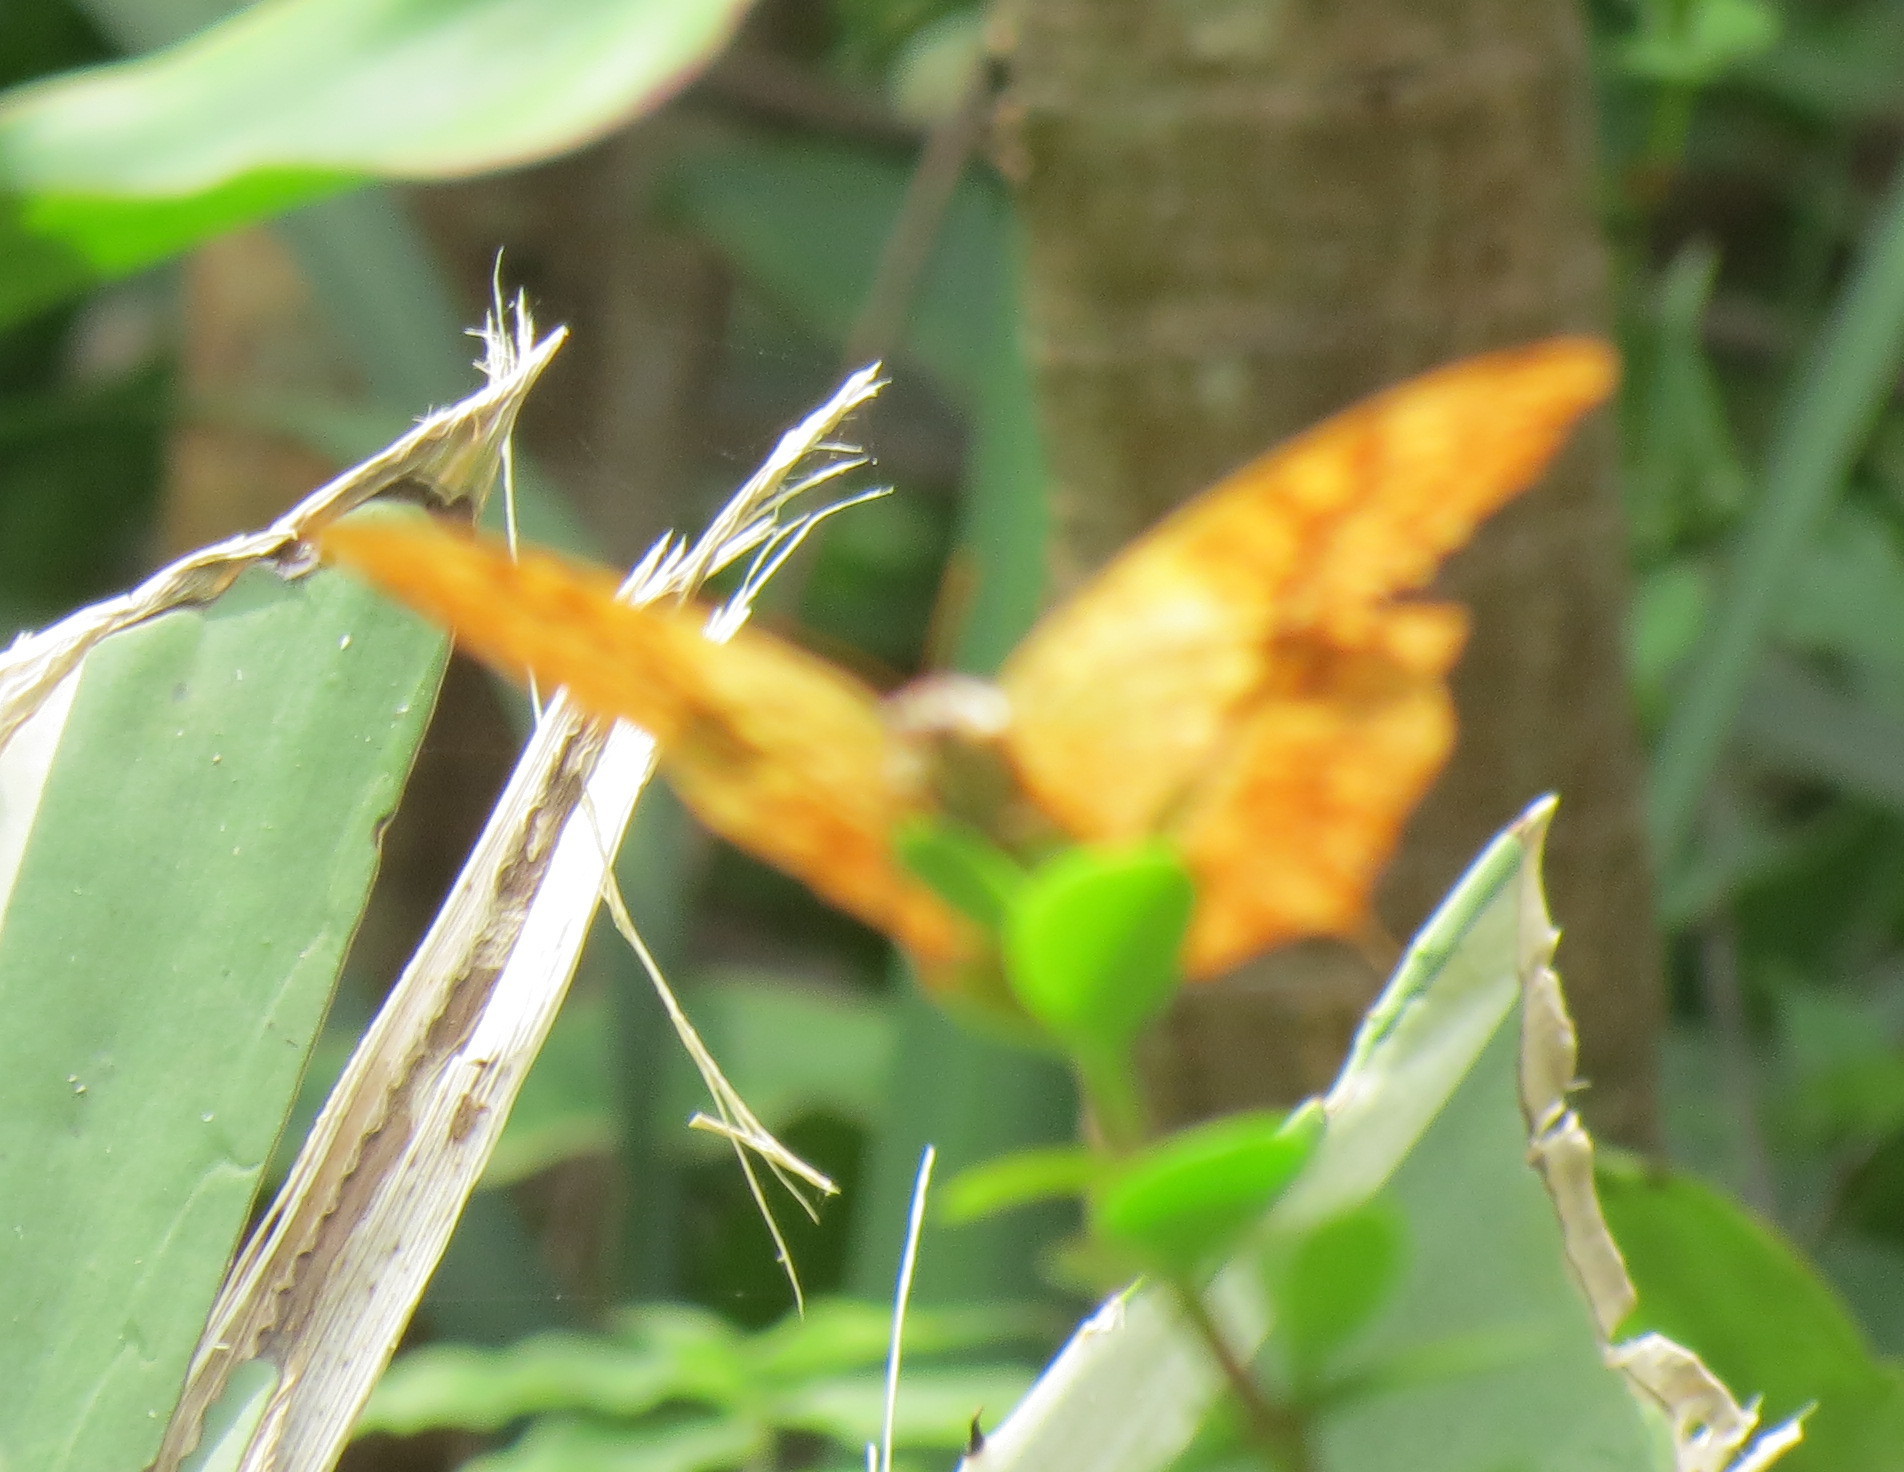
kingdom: Animalia
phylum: Arthropoda
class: Insecta
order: Lepidoptera
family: Nymphalidae
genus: Charaxes
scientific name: Charaxes varanes
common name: Common pearl charaxes
